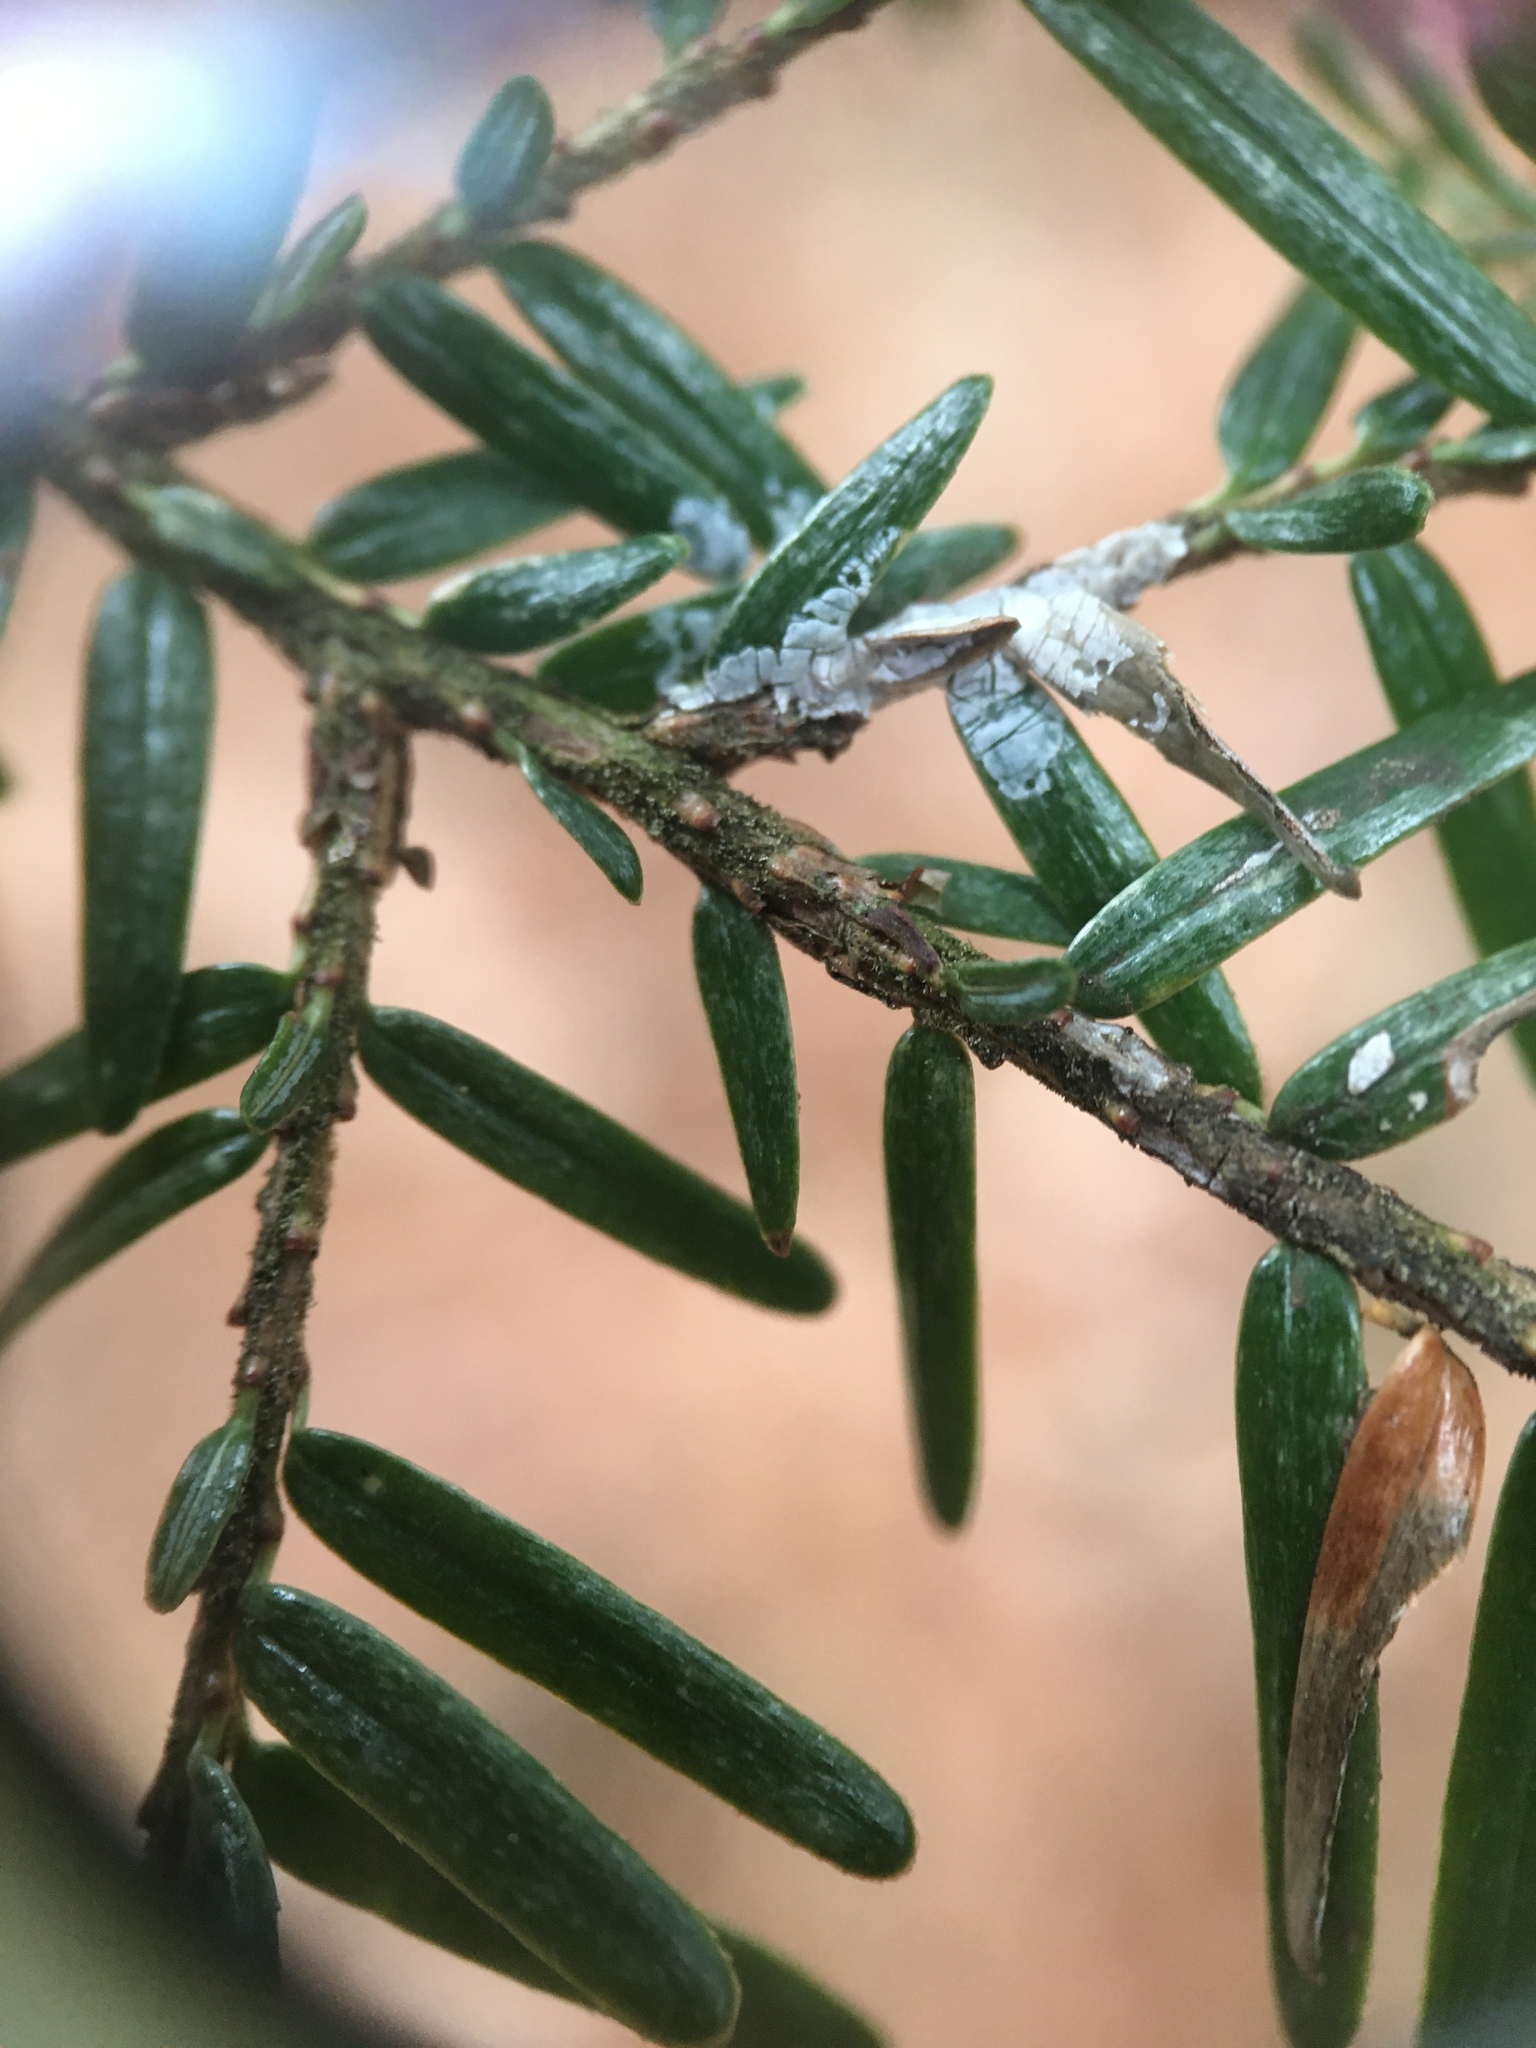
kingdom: Plantae
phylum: Tracheophyta
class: Pinopsida
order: Pinales
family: Pinaceae
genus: Tsuga
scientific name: Tsuga canadensis
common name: Eastern hemlock
